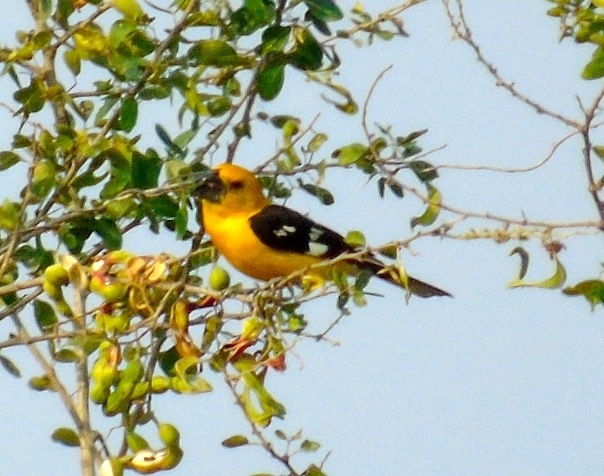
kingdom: Animalia
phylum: Chordata
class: Aves
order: Passeriformes
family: Cardinalidae
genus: Pheucticus
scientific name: Pheucticus chrysopeplus
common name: Yellow grosbeak
